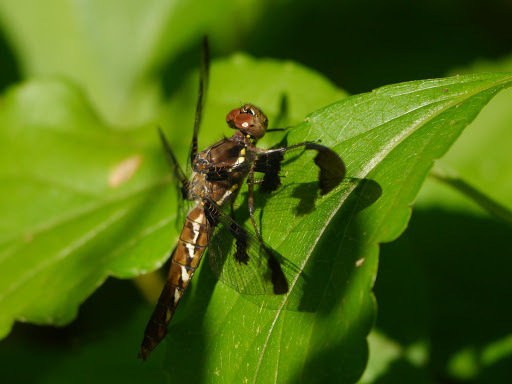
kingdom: Animalia
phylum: Arthropoda
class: Insecta
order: Odonata
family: Libellulidae
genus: Plathemis
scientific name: Plathemis lydia
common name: Common whitetail
